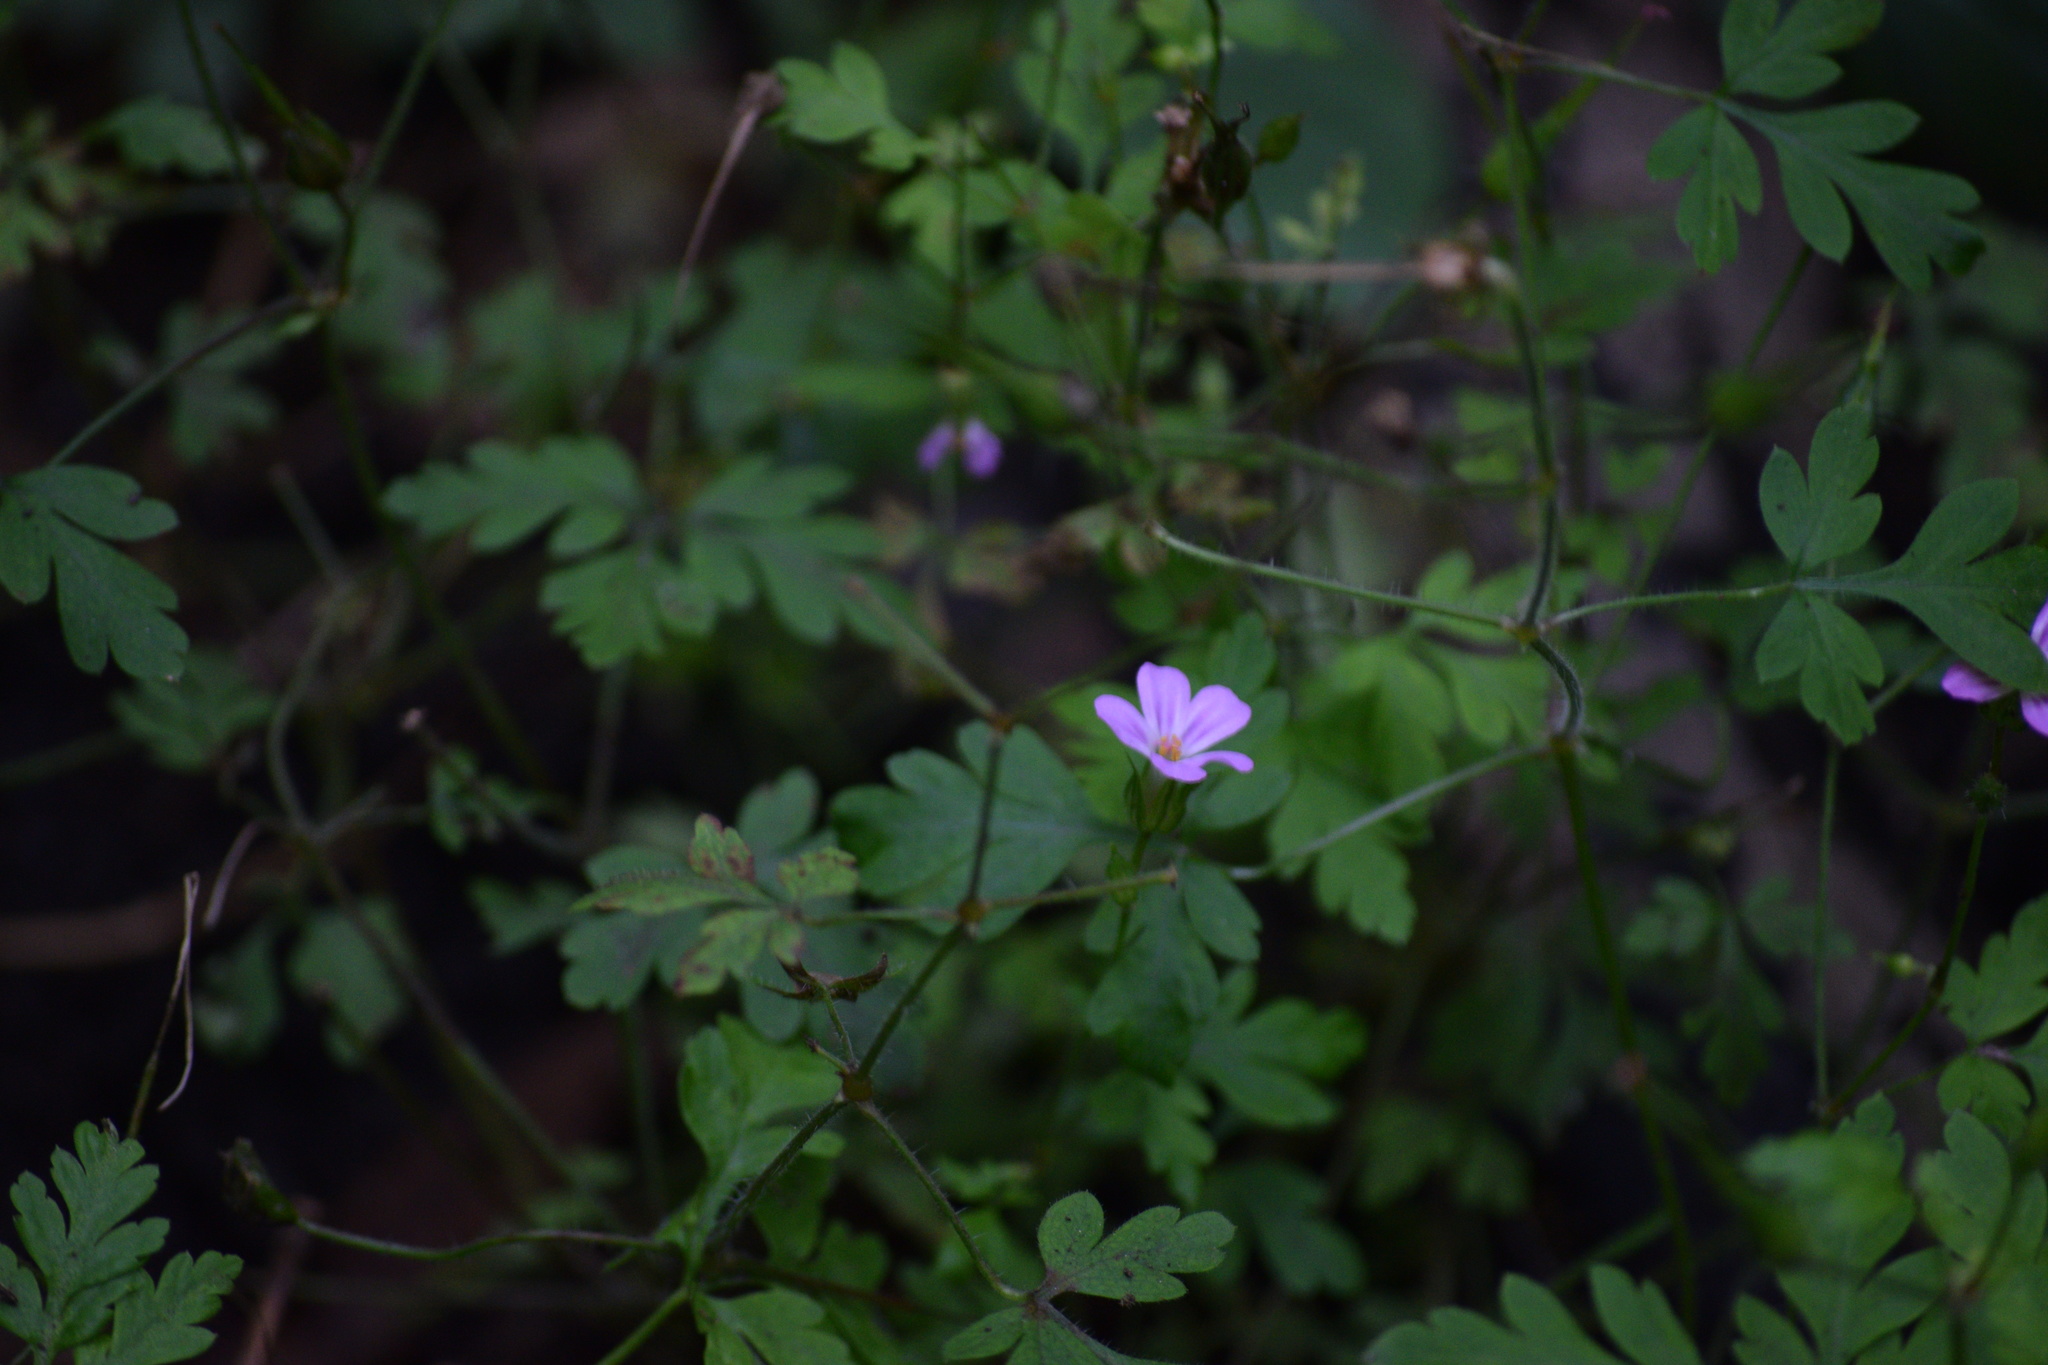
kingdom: Plantae
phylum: Tracheophyta
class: Magnoliopsida
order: Geraniales
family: Geraniaceae
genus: Geranium
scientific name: Geranium robertianum
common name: Herb-robert
